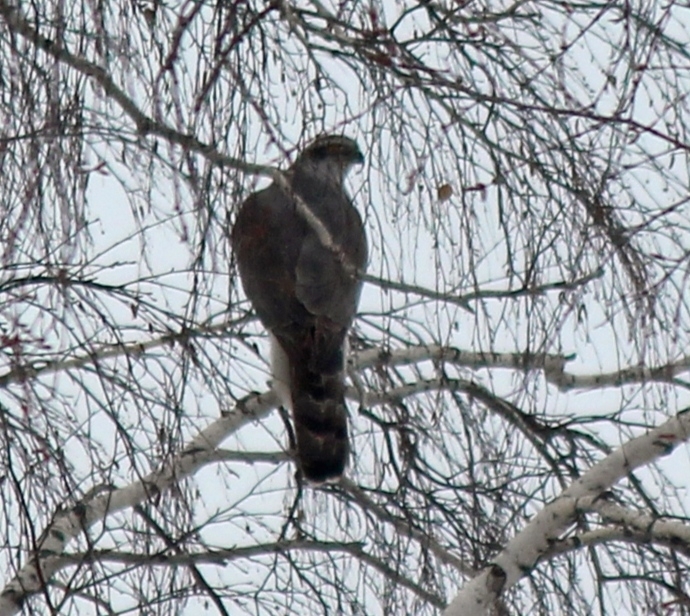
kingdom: Animalia
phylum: Chordata
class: Aves
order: Accipitriformes
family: Accipitridae
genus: Accipiter
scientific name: Accipiter gentilis
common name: Northern goshawk
